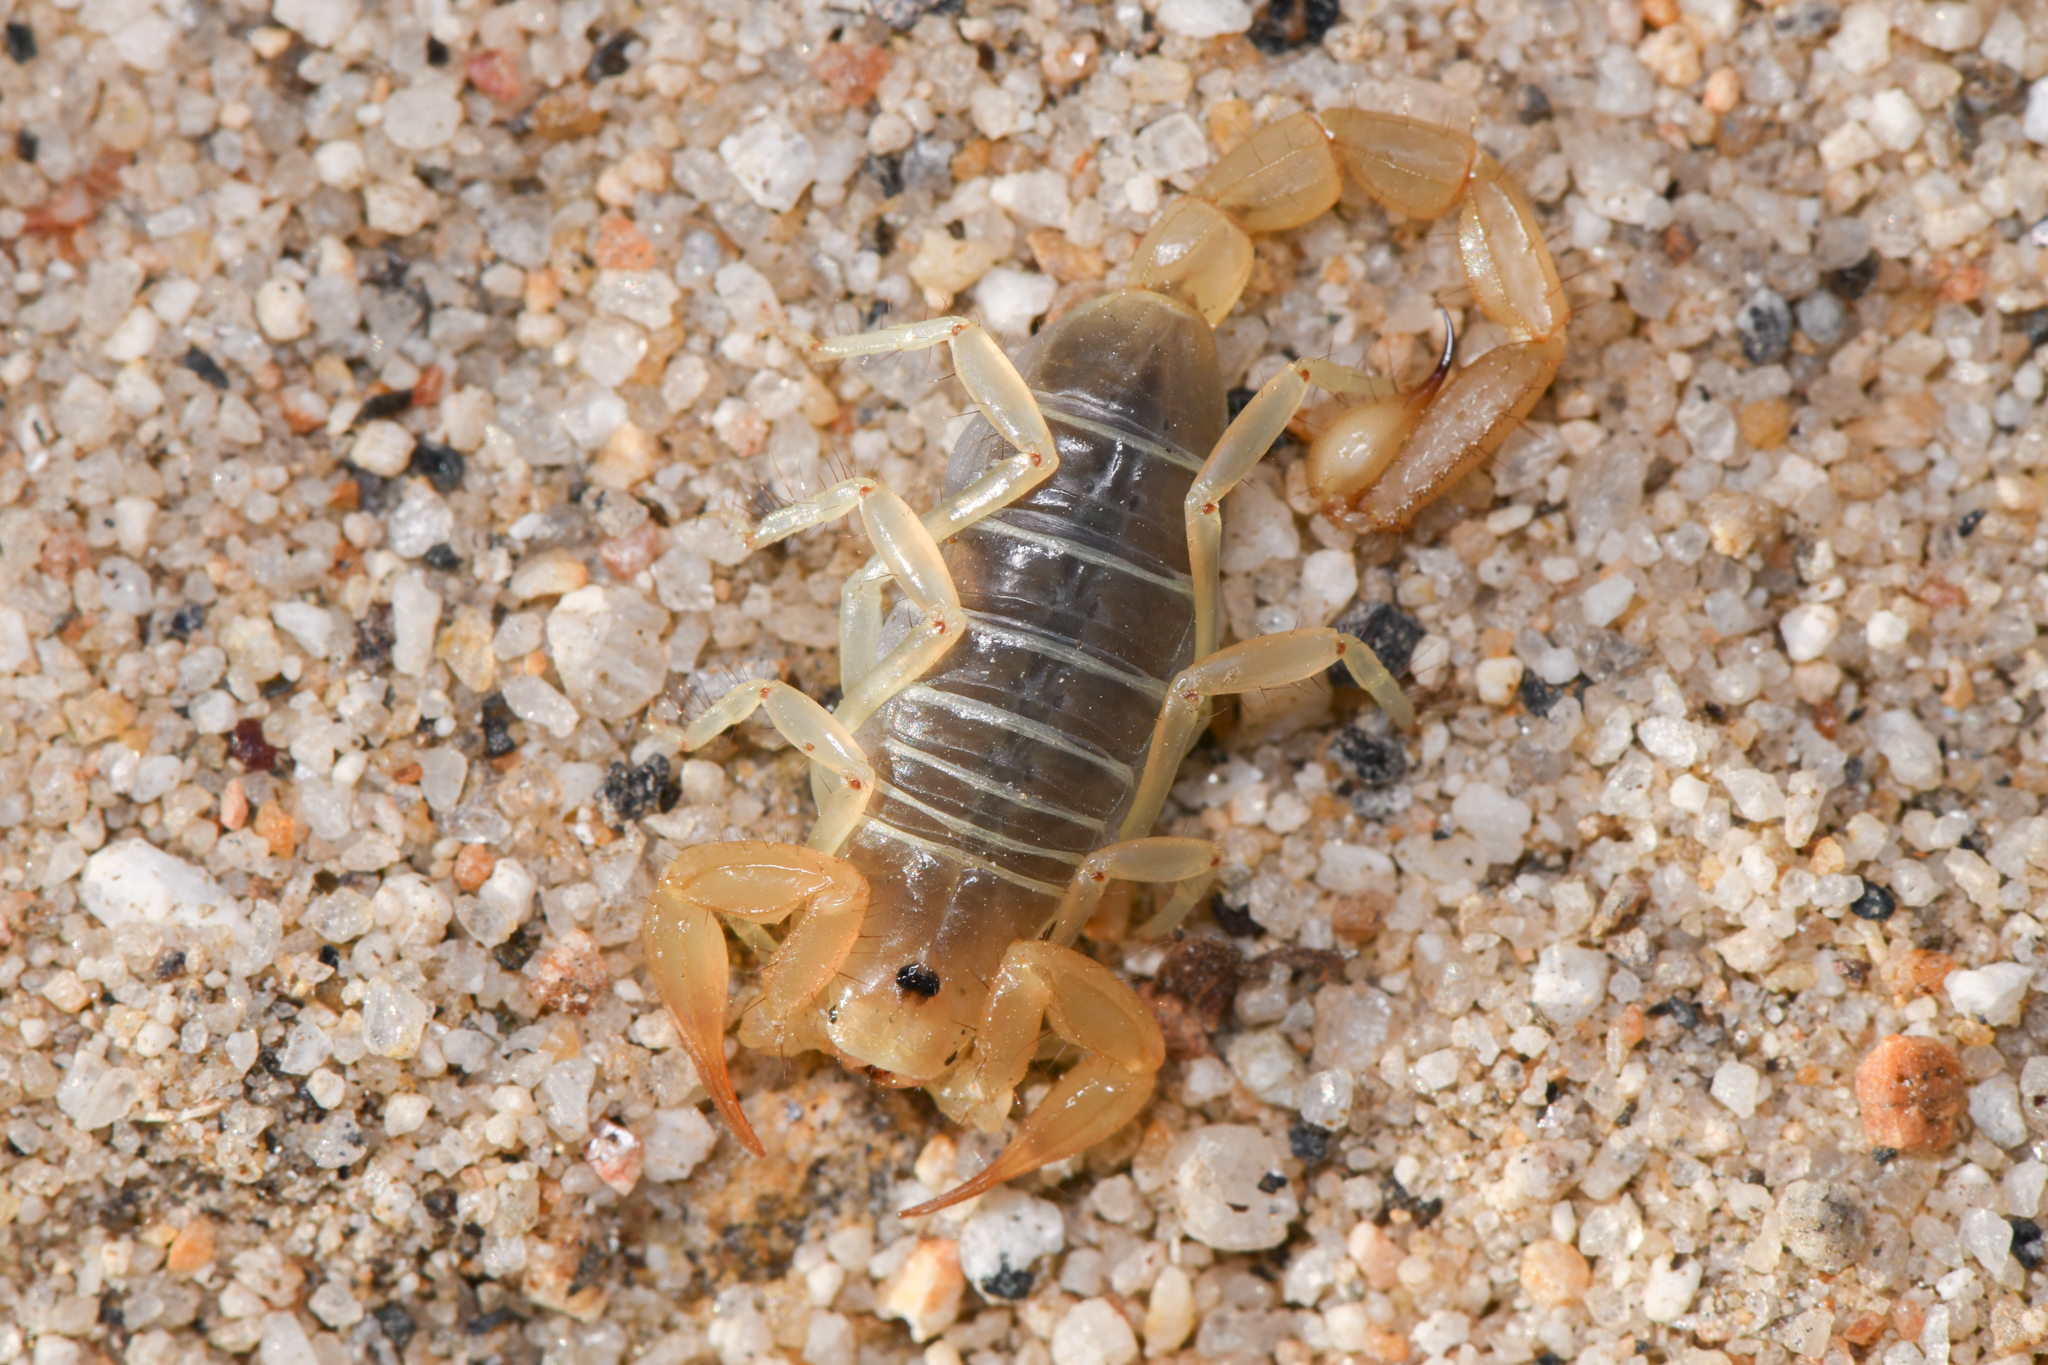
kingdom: Animalia
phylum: Arthropoda
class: Arachnida
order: Scorpiones
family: Vaejovidae
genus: Paruroctonus
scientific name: Paruroctonus borregoensis
